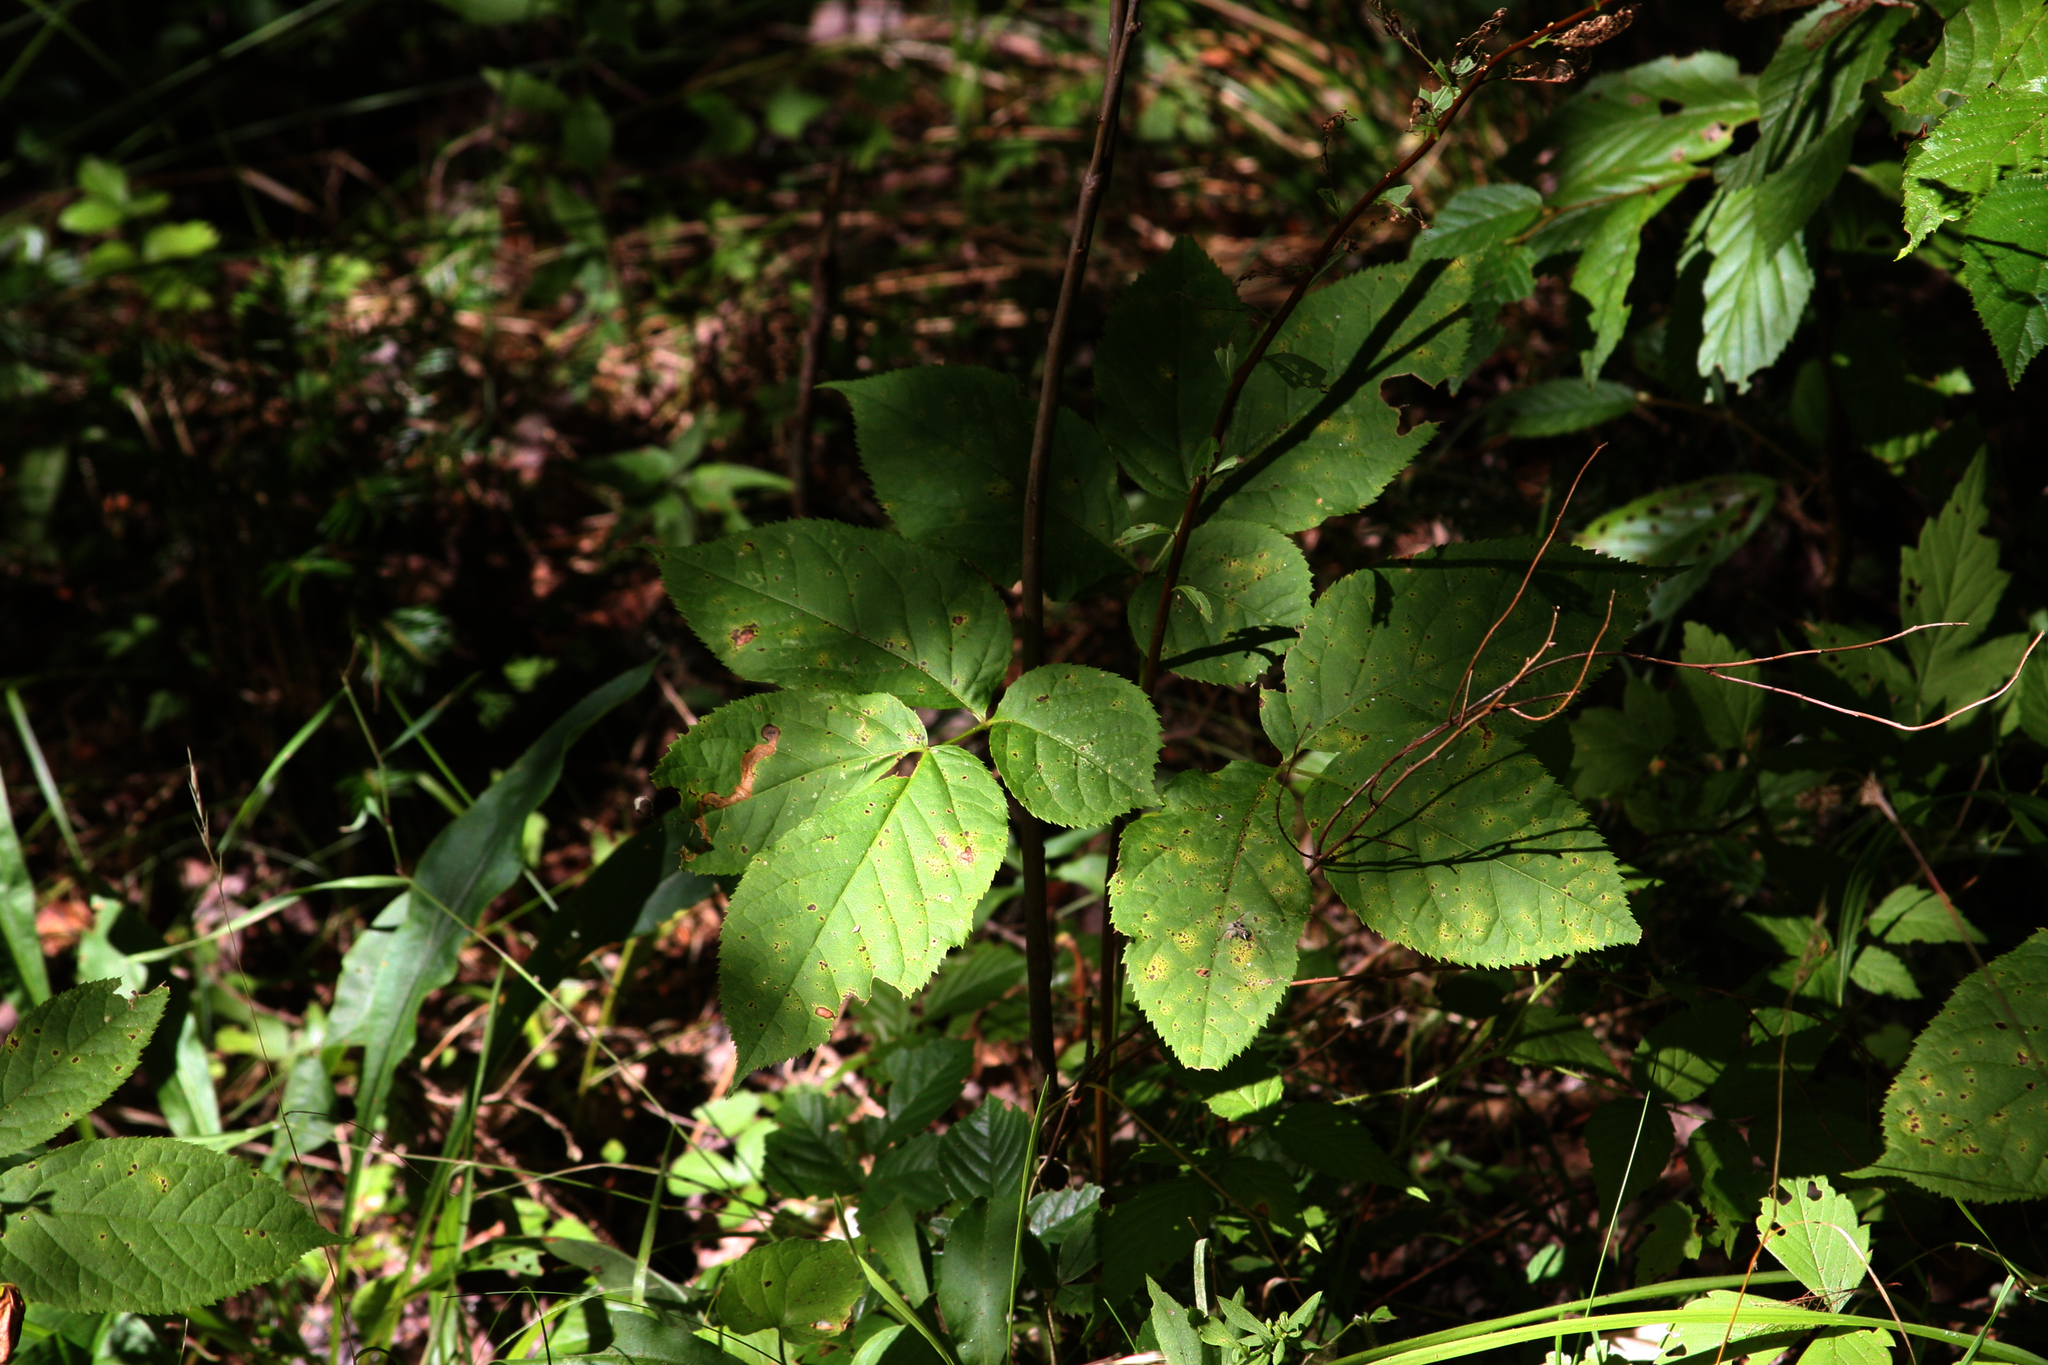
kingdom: Plantae
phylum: Tracheophyta
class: Magnoliopsida
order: Apiales
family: Araliaceae
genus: Aralia
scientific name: Aralia nudicaulis
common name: Wild sarsaparilla
